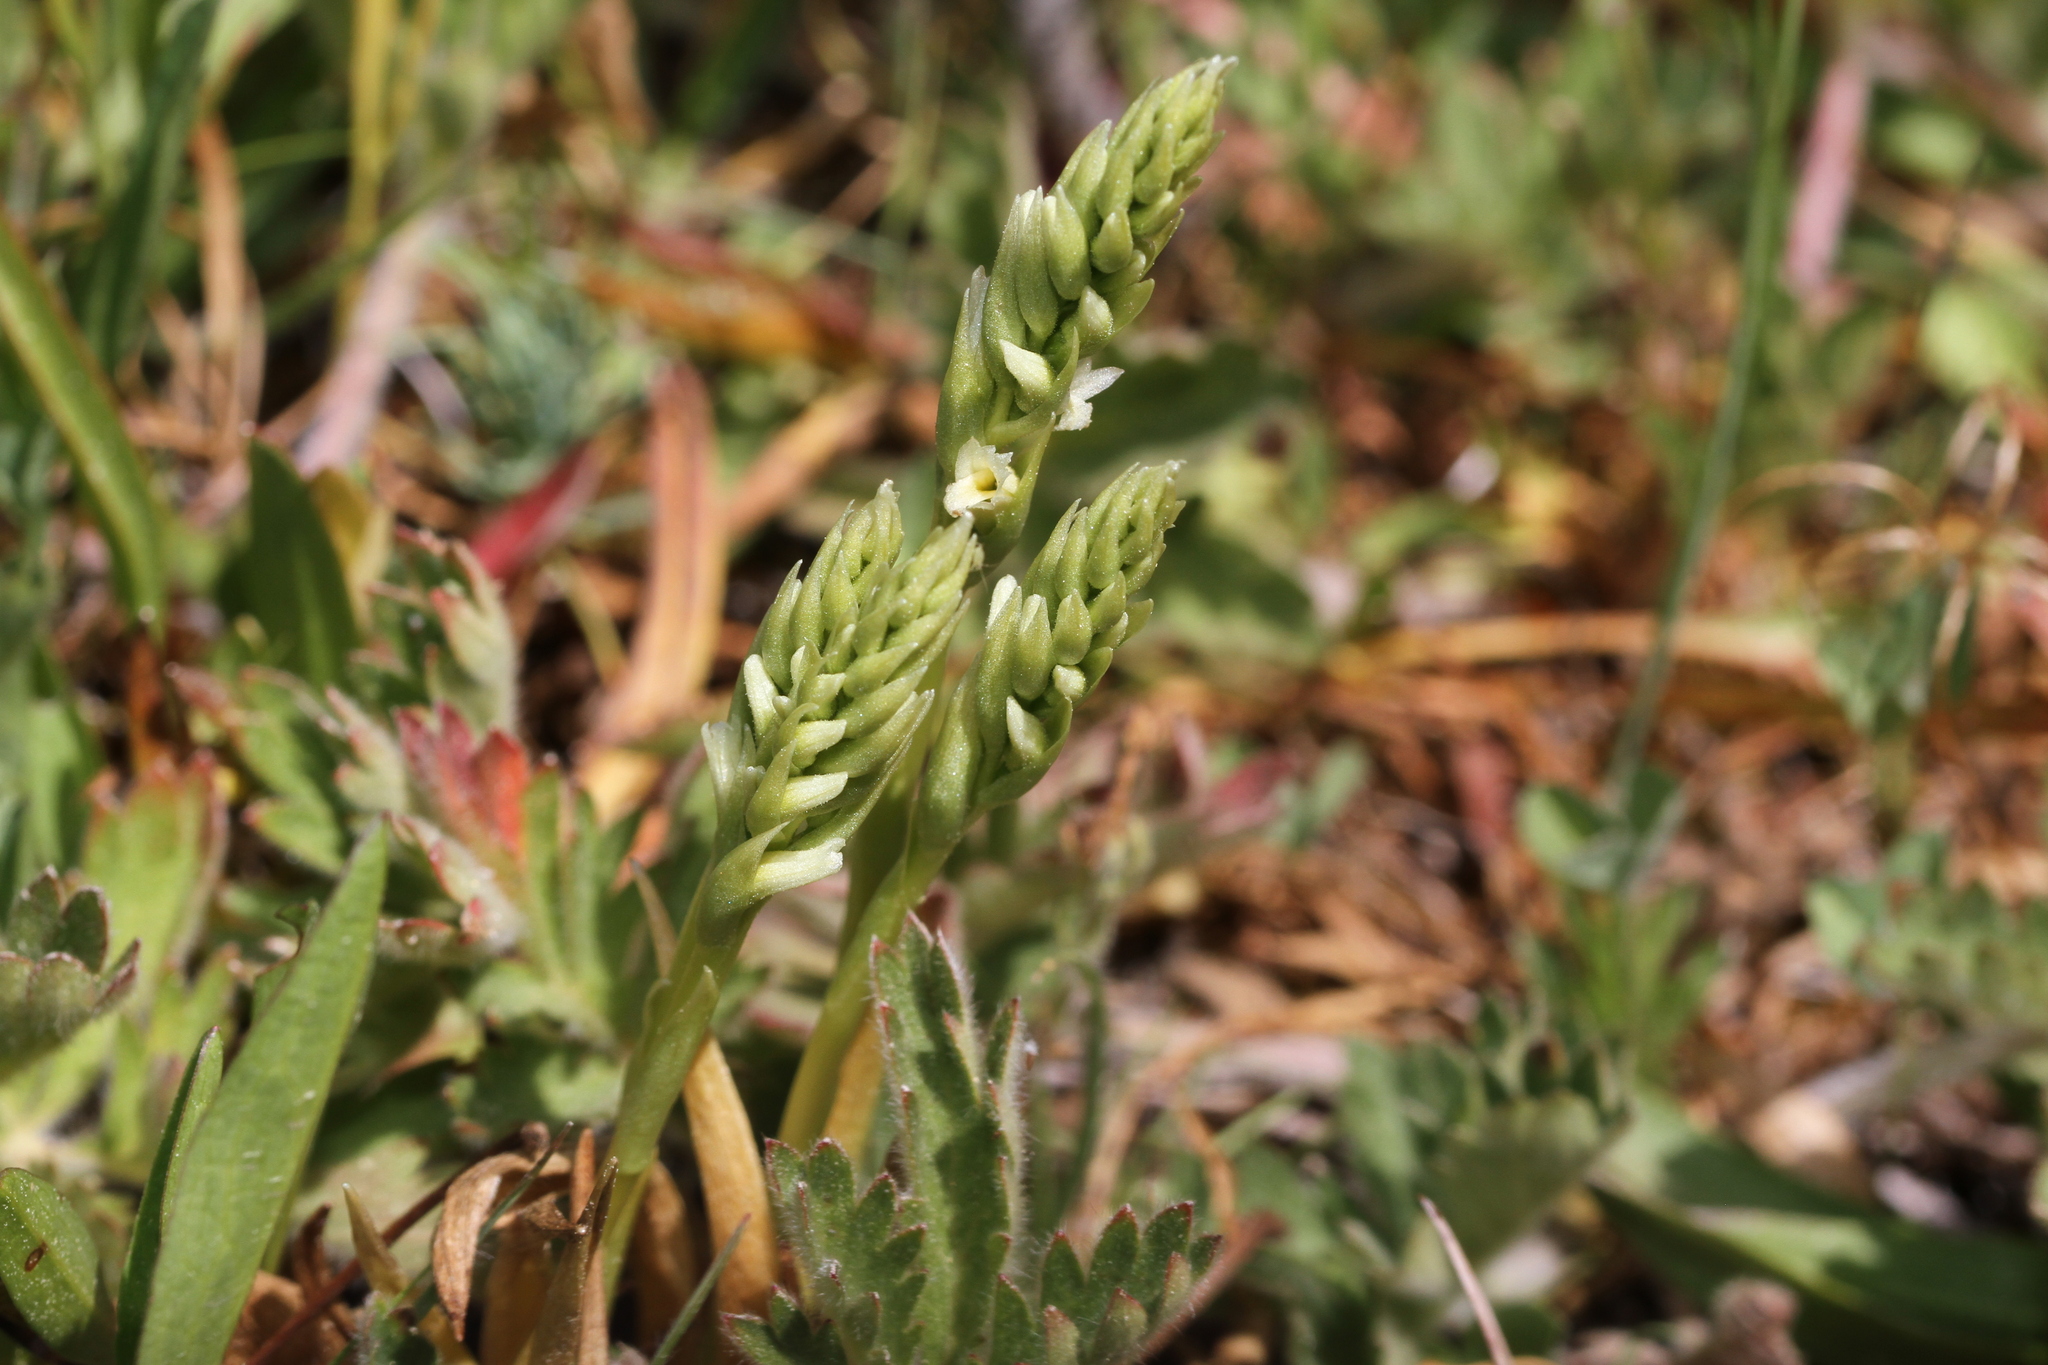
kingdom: Plantae
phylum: Tracheophyta
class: Liliopsida
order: Asparagales
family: Orchidaceae
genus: Spiranthes
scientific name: Spiranthes stellata
